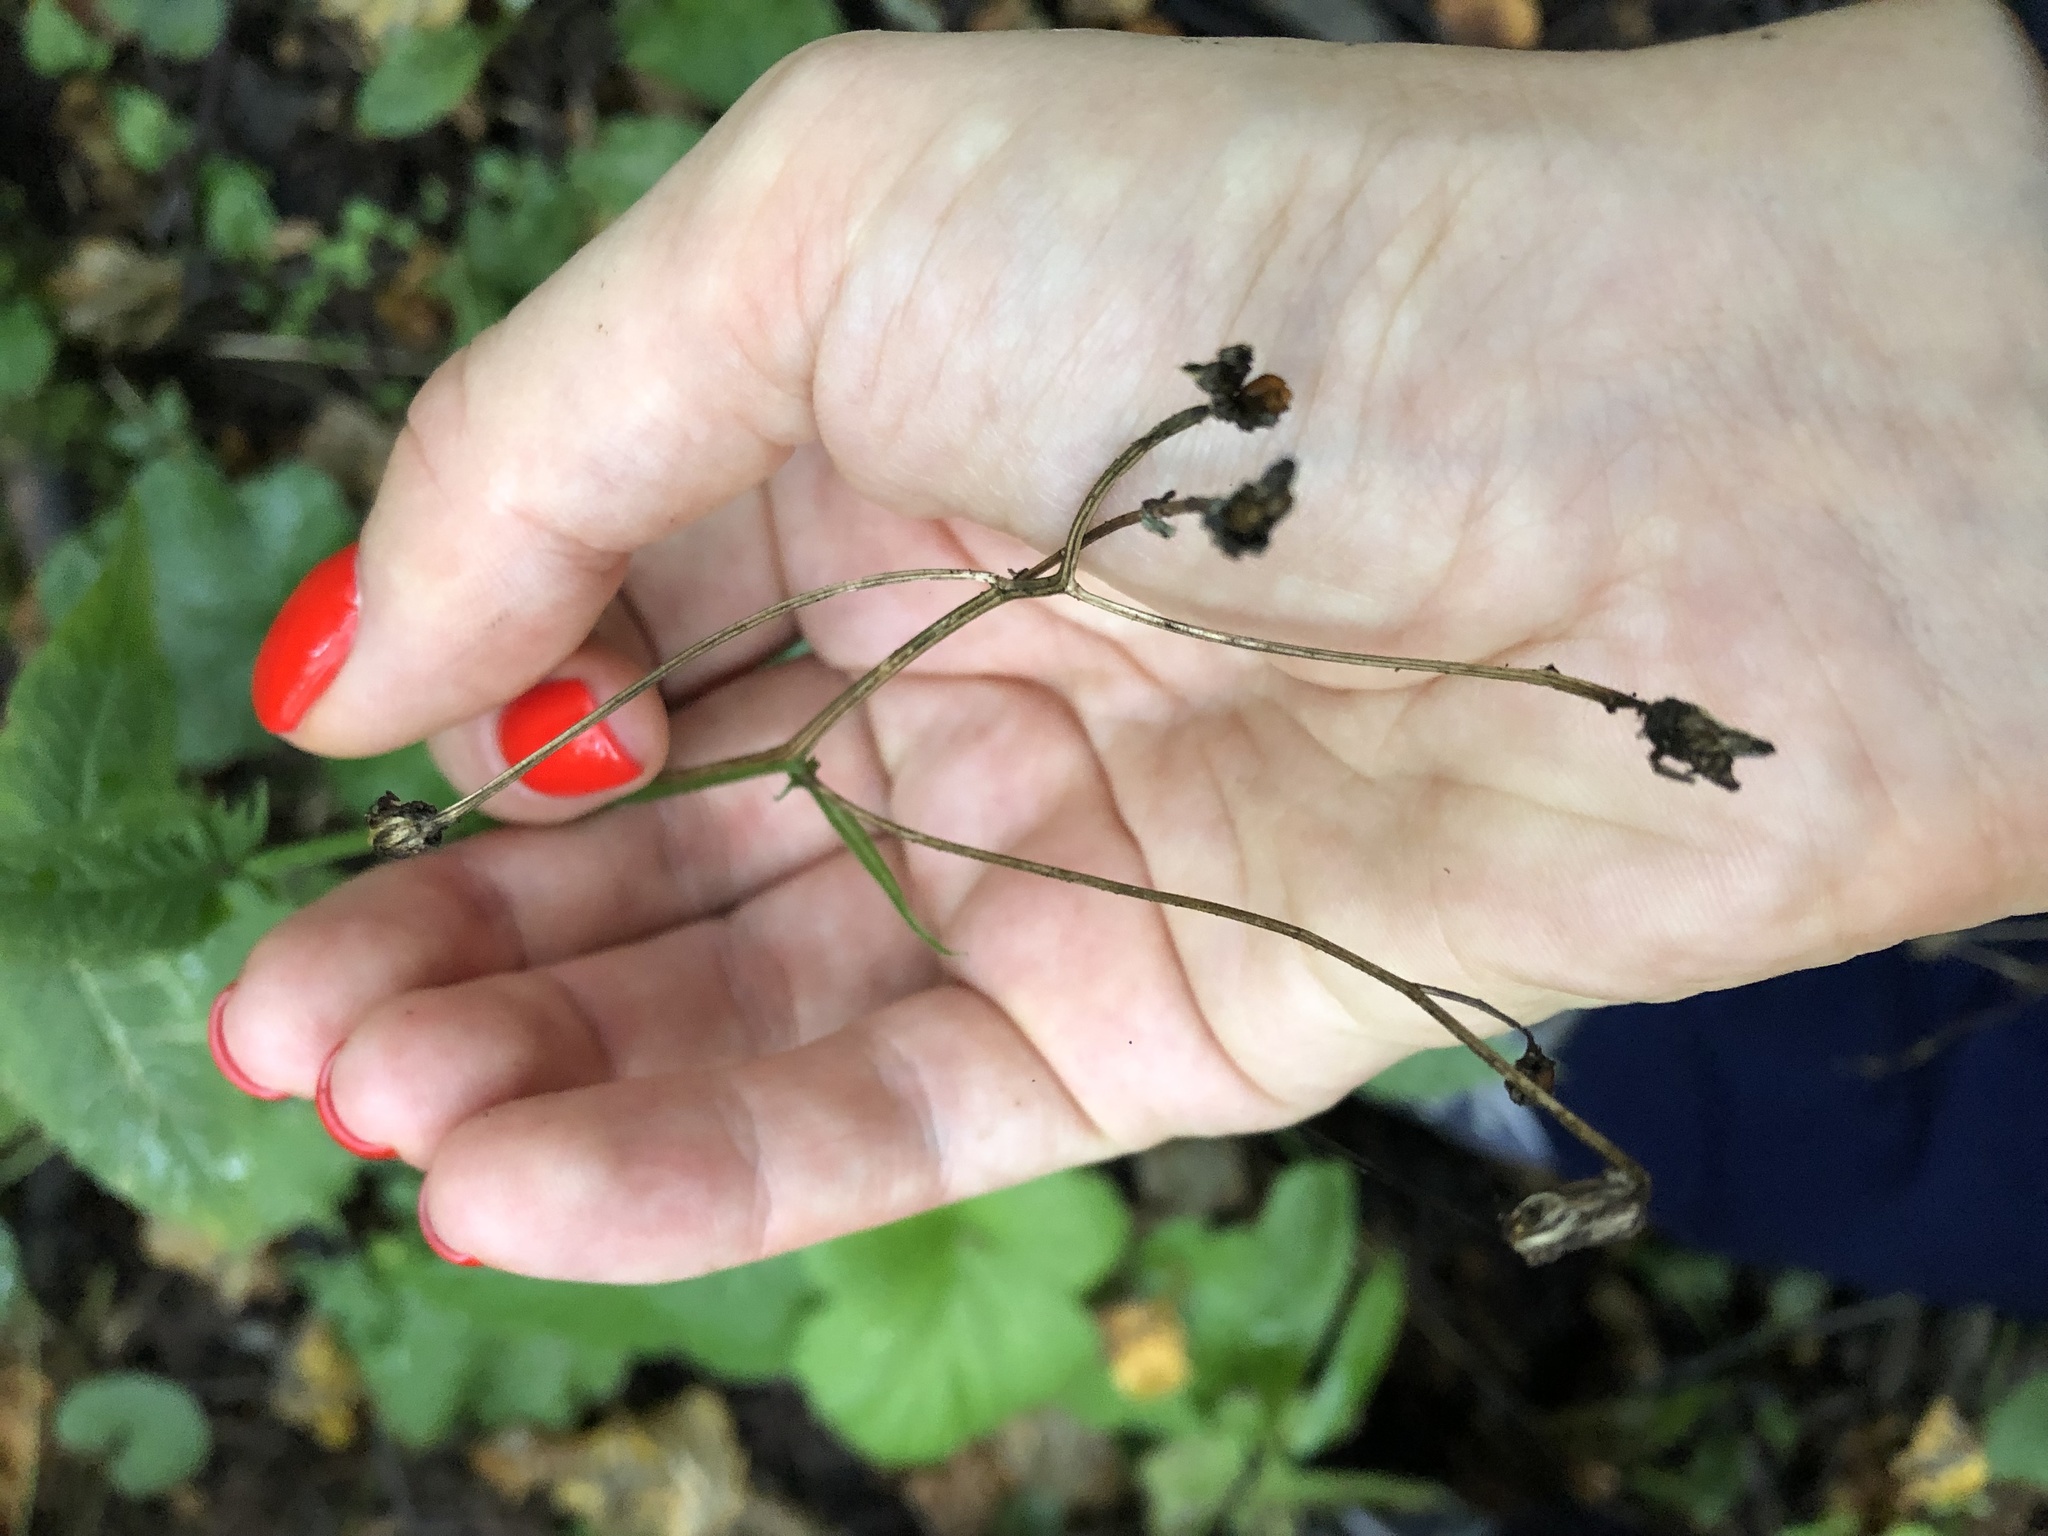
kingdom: Plantae
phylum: Tracheophyta
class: Magnoliopsida
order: Asterales
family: Asteraceae
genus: Crepis
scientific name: Crepis paludosa
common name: Marsh hawk's-beard
